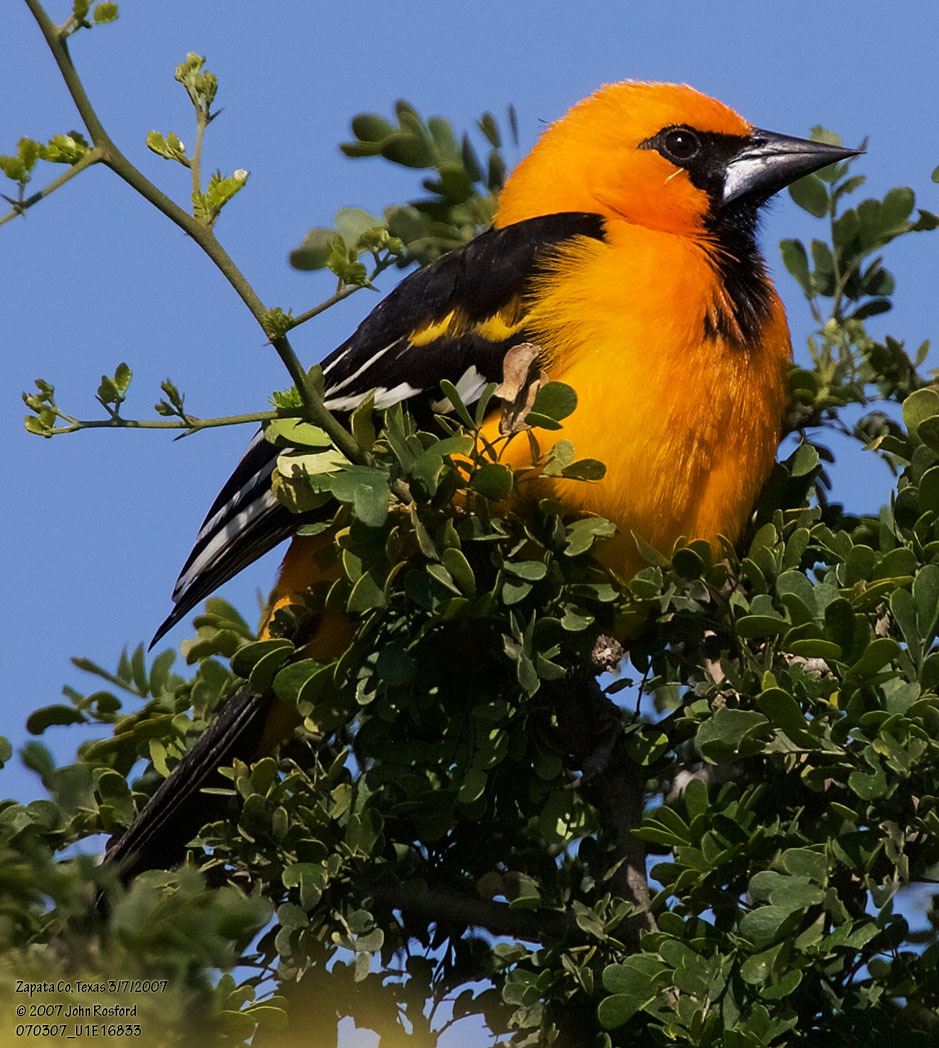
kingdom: Animalia
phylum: Chordata
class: Aves
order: Passeriformes
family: Icteridae
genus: Icterus
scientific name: Icterus gularis
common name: Altamira oriole
